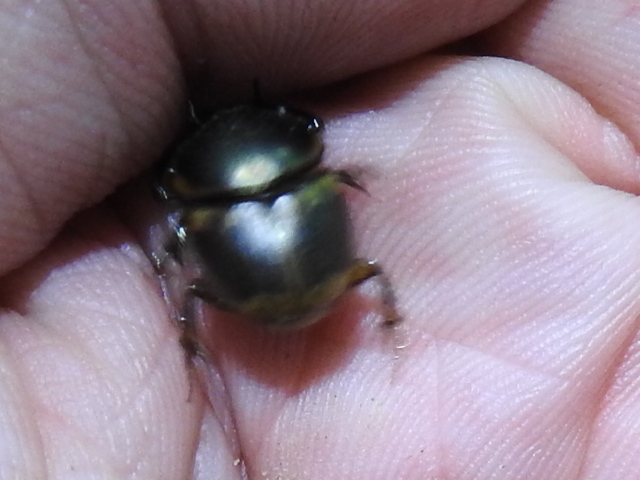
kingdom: Animalia
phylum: Arthropoda
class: Insecta
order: Coleoptera
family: Scarabaeidae
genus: Digitonthophagus
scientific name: Digitonthophagus gazella
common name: Brown dung beetle
